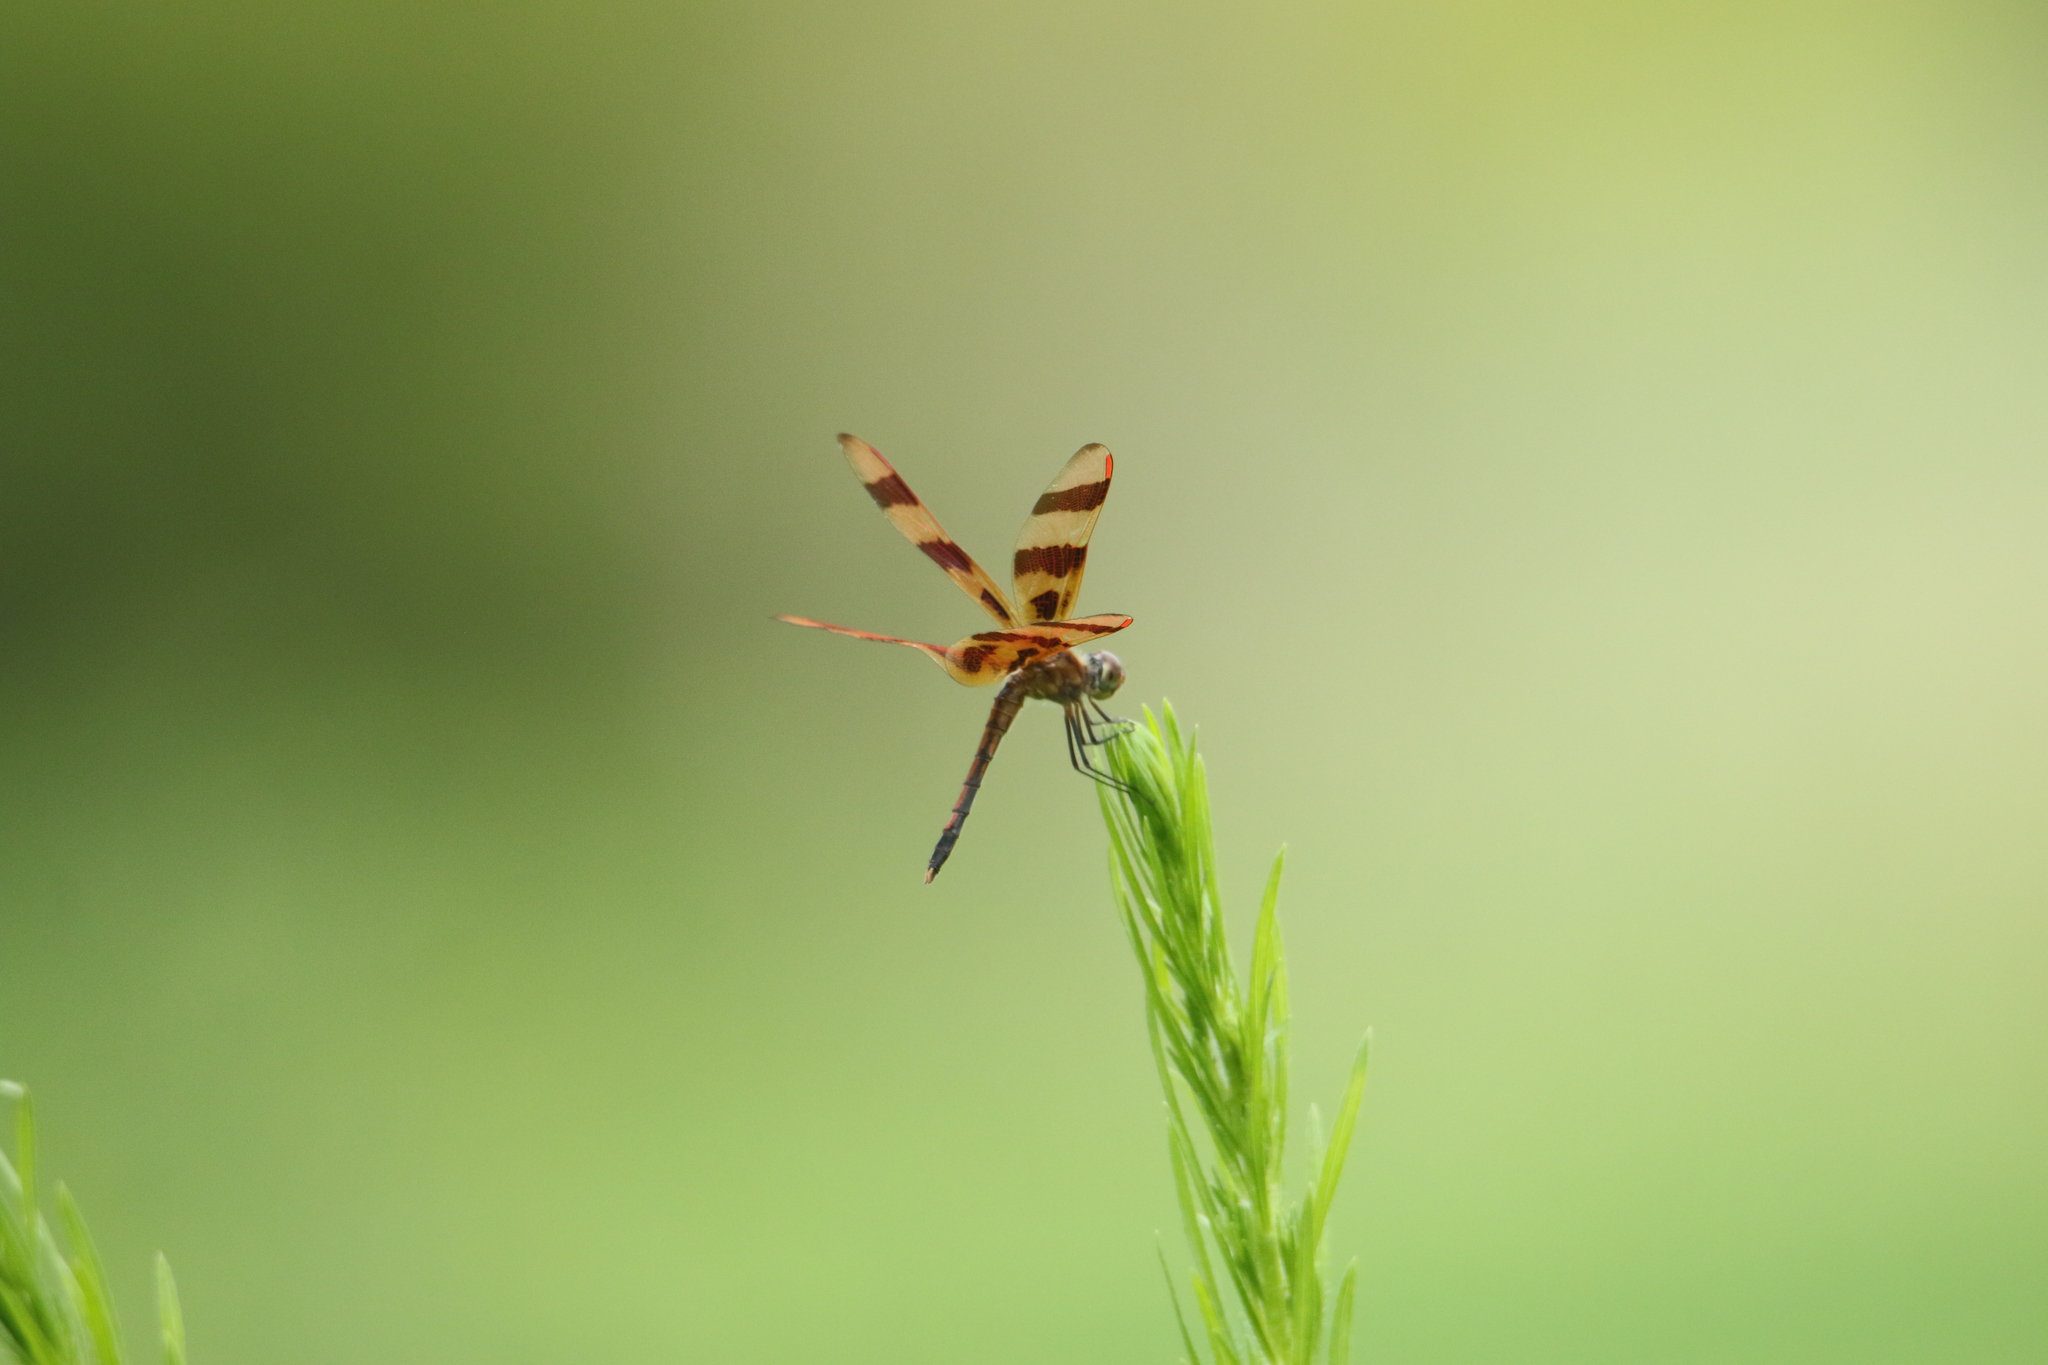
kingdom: Animalia
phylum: Arthropoda
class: Insecta
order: Odonata
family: Libellulidae
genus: Celithemis
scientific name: Celithemis eponina
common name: Halloween pennant
